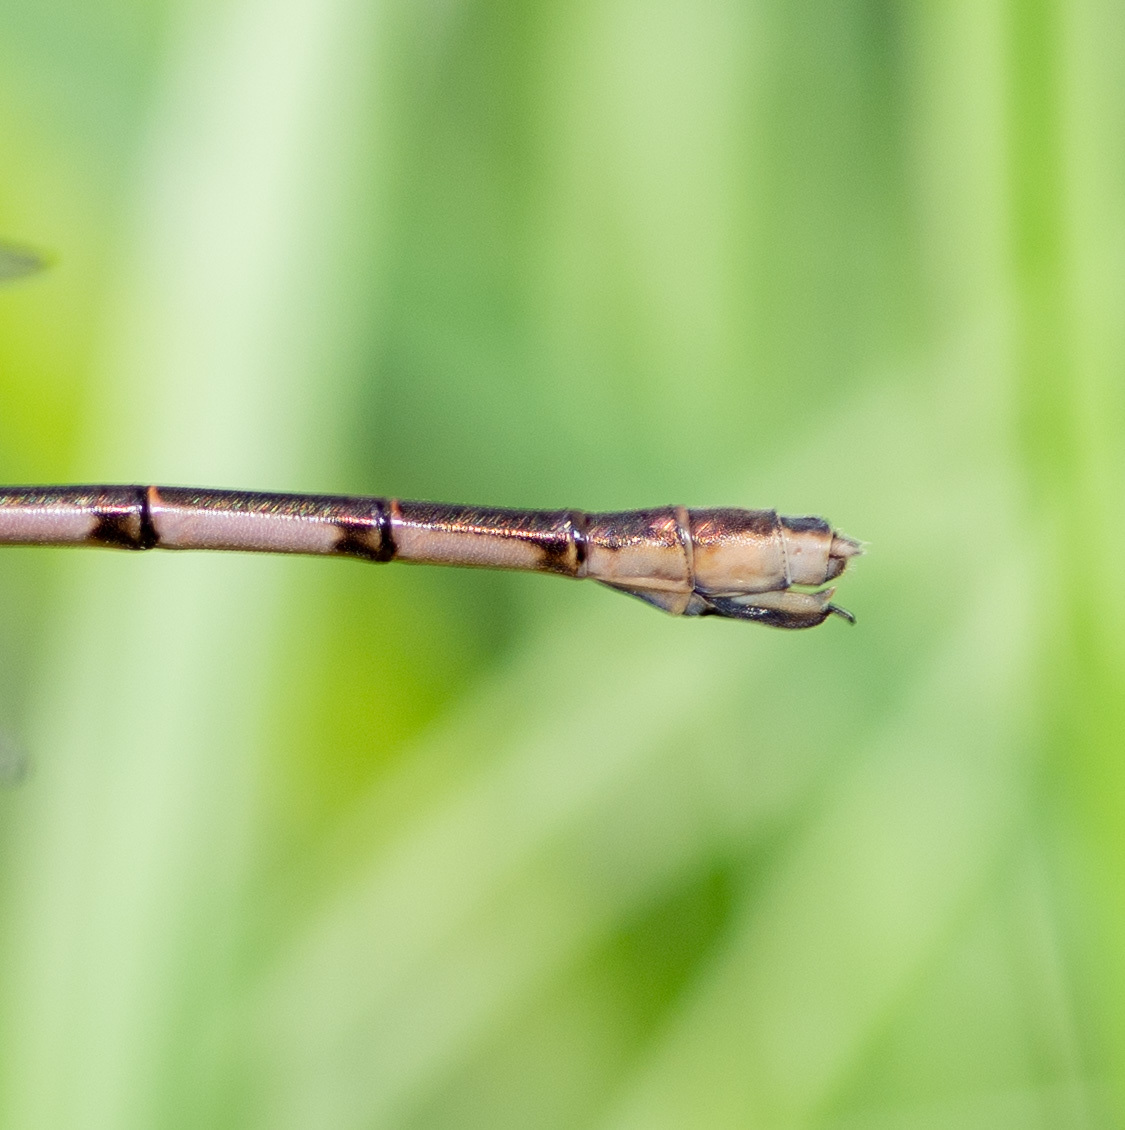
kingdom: Animalia
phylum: Arthropoda
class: Insecta
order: Odonata
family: Lestidae
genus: Lestes
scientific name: Lestes australis
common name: Southern spreadwing
